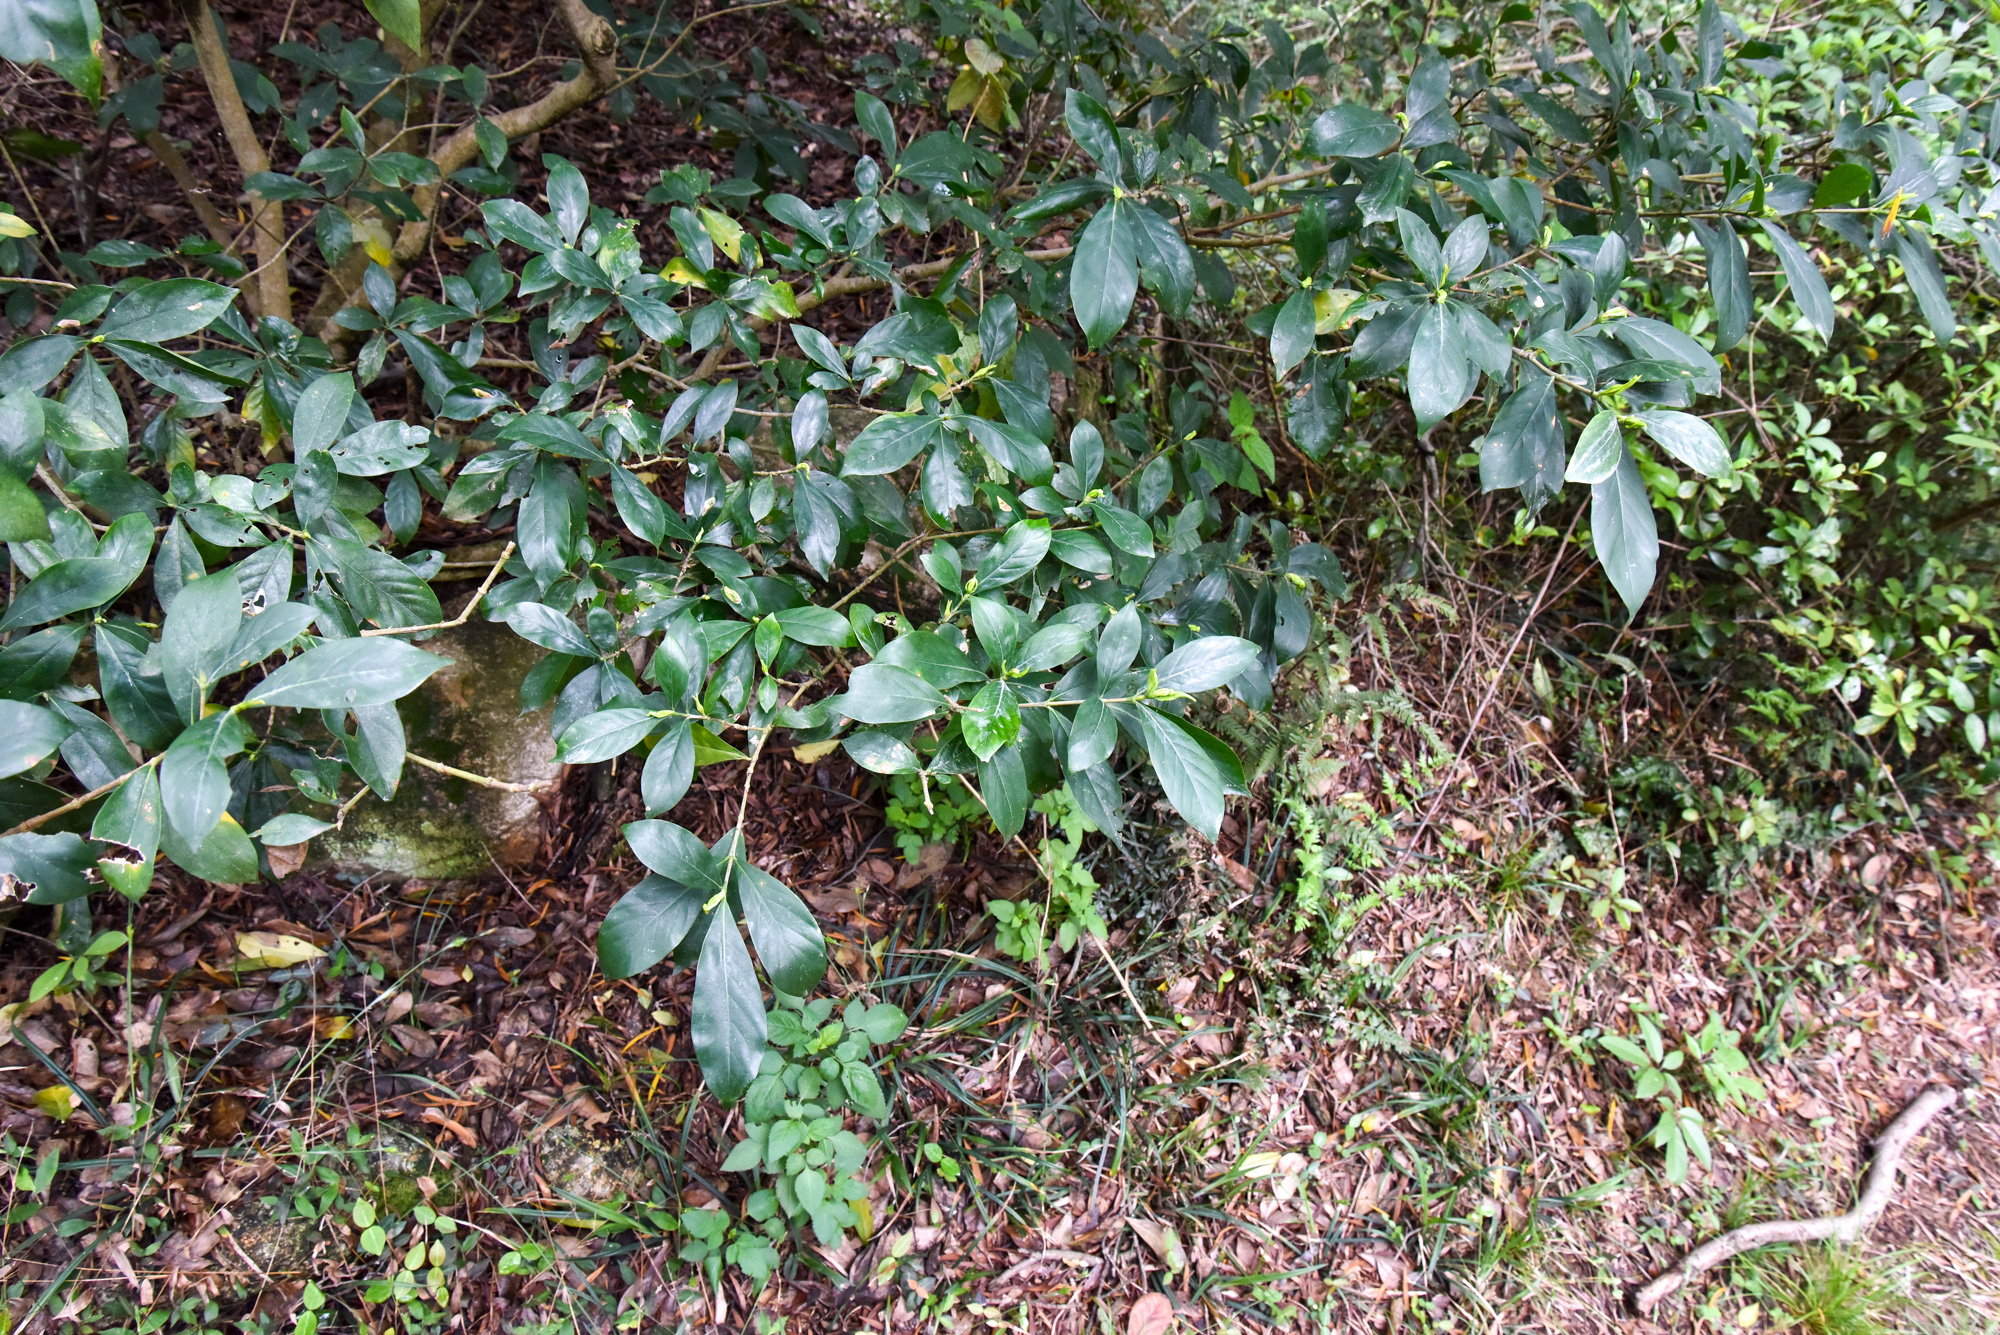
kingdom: Plantae
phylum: Tracheophyta
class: Magnoliopsida
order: Gentianales
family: Rubiaceae
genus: Gardenia
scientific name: Gardenia jasminoides
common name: Cape-jasmine
